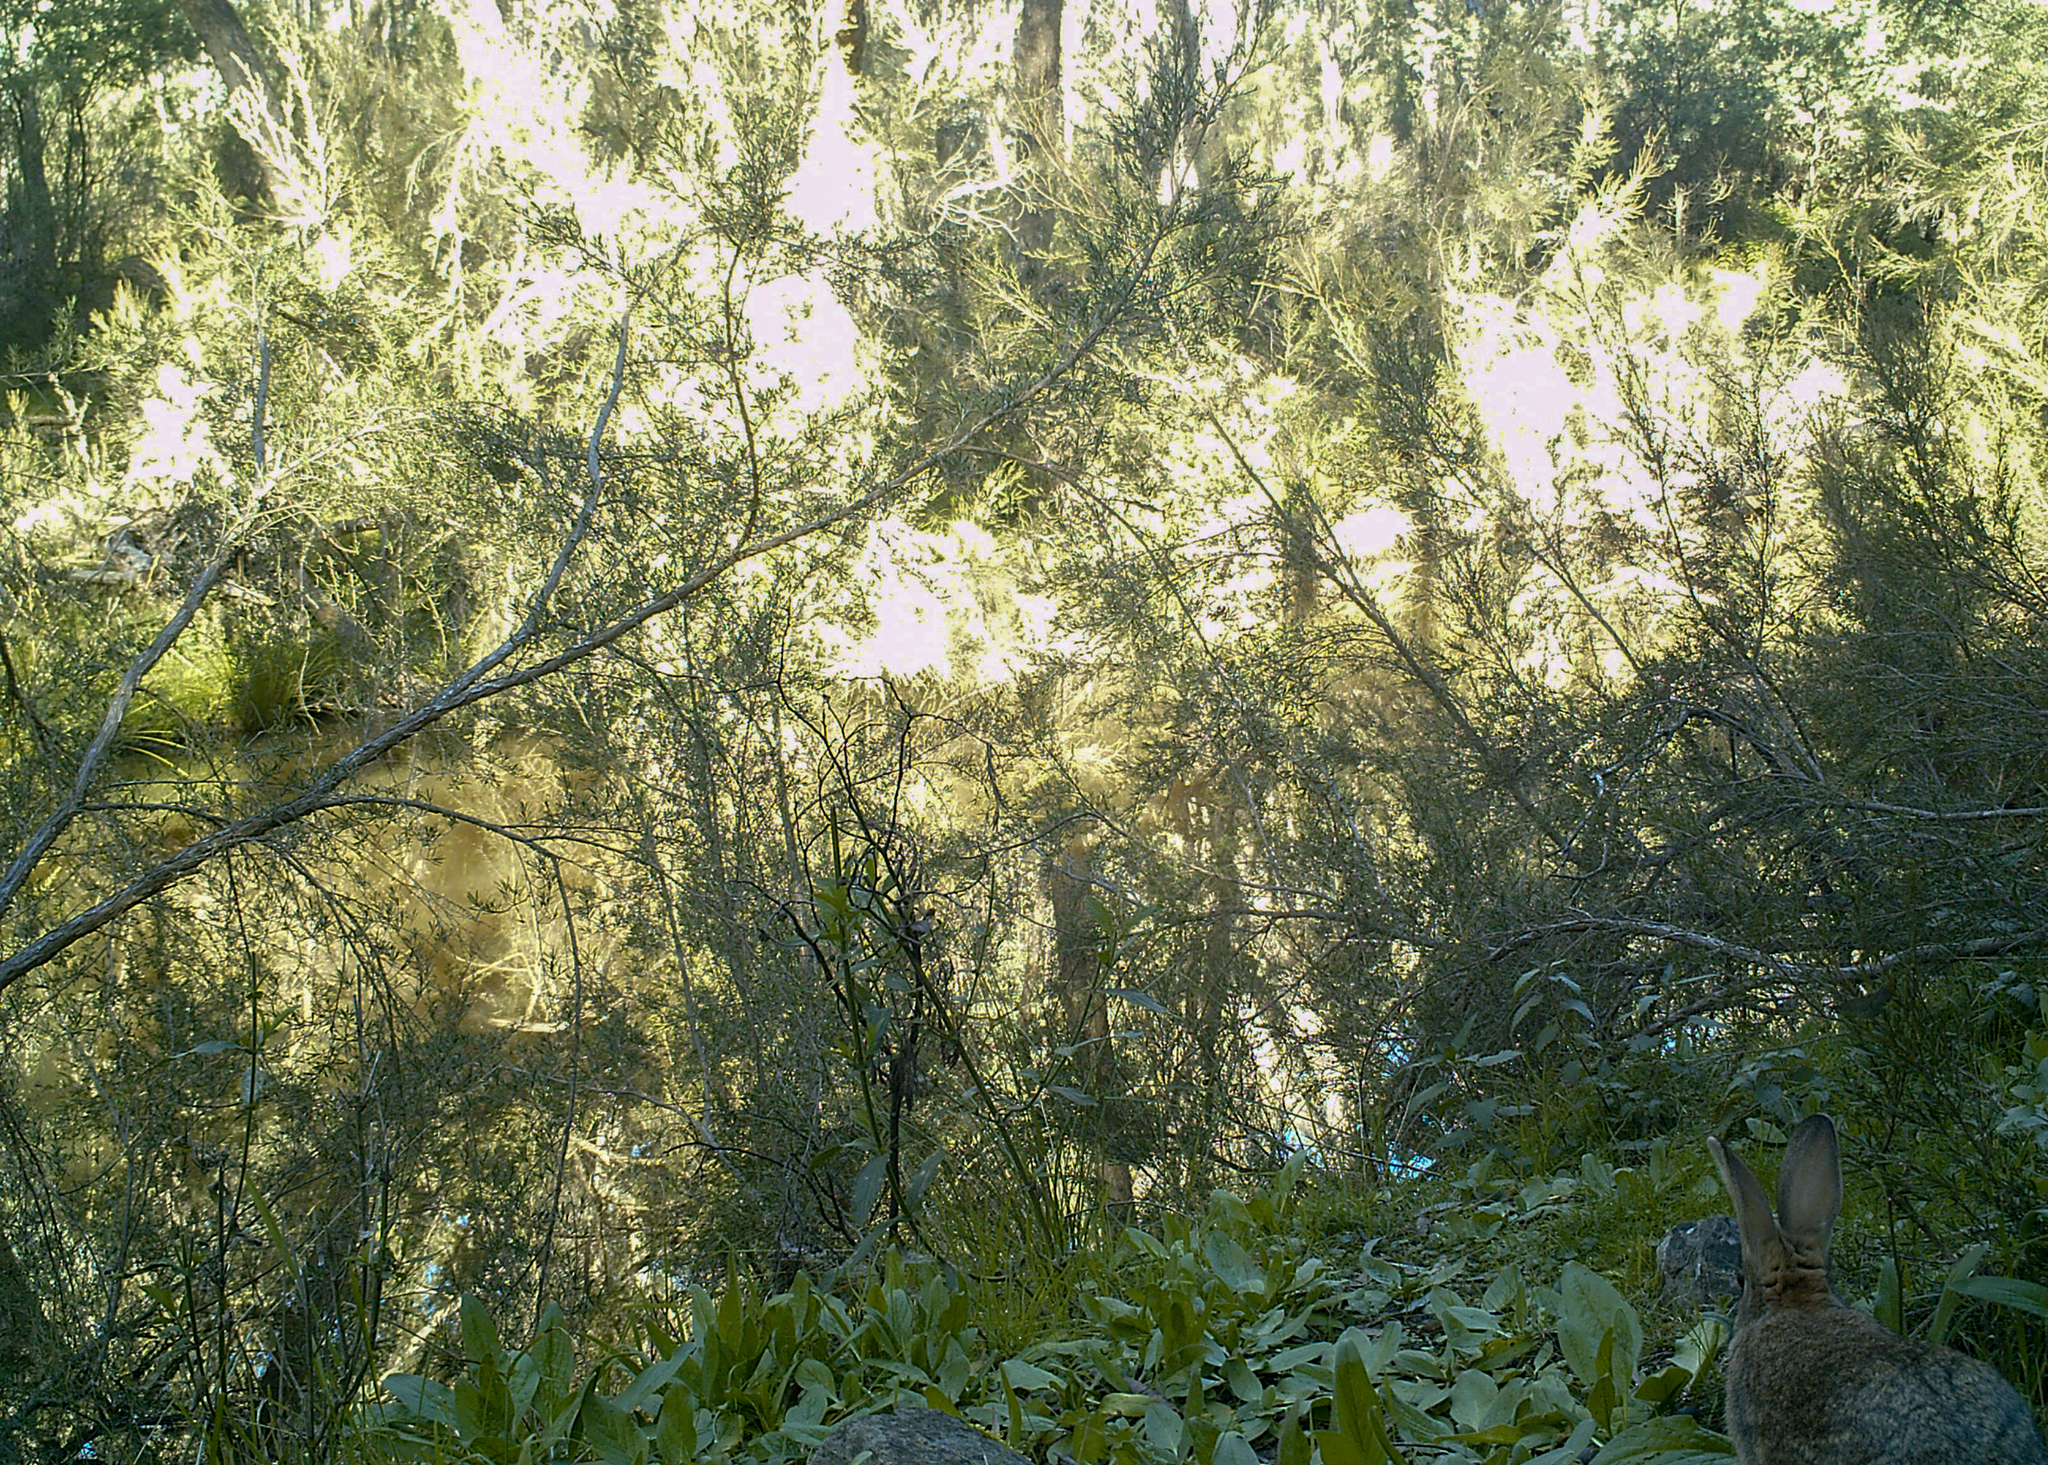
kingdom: Animalia
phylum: Chordata
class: Mammalia
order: Lagomorpha
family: Leporidae
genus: Oryctolagus
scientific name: Oryctolagus cuniculus
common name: European rabbit
